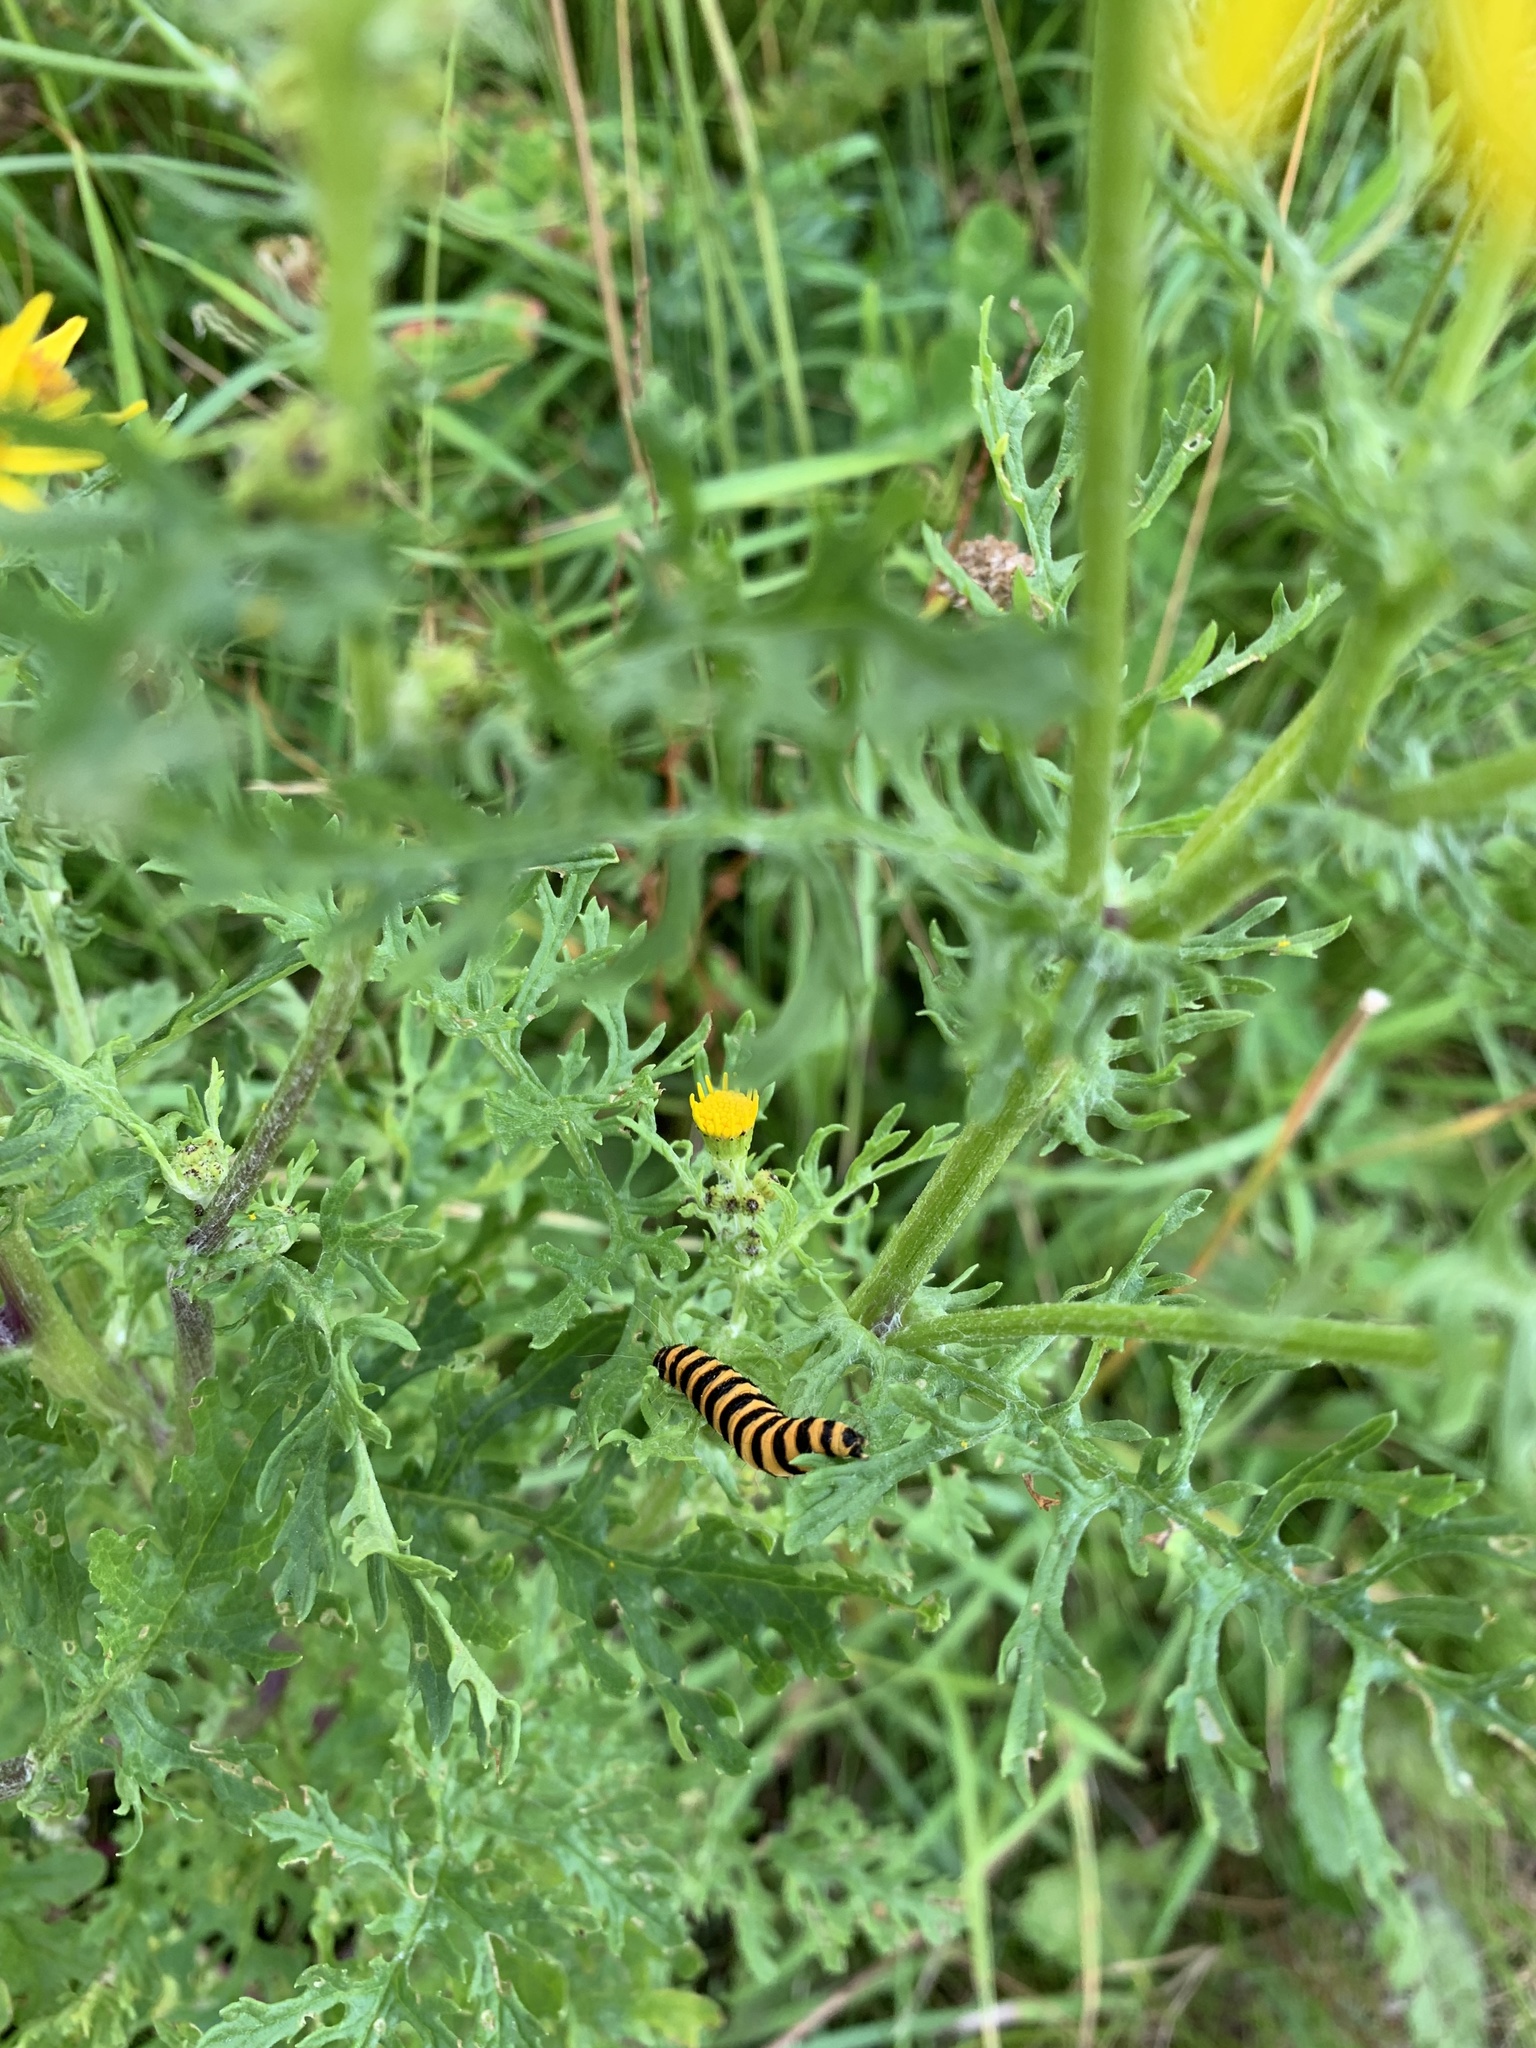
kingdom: Animalia
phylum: Arthropoda
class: Insecta
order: Lepidoptera
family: Erebidae
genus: Tyria
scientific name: Tyria jacobaeae
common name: Cinnabar
